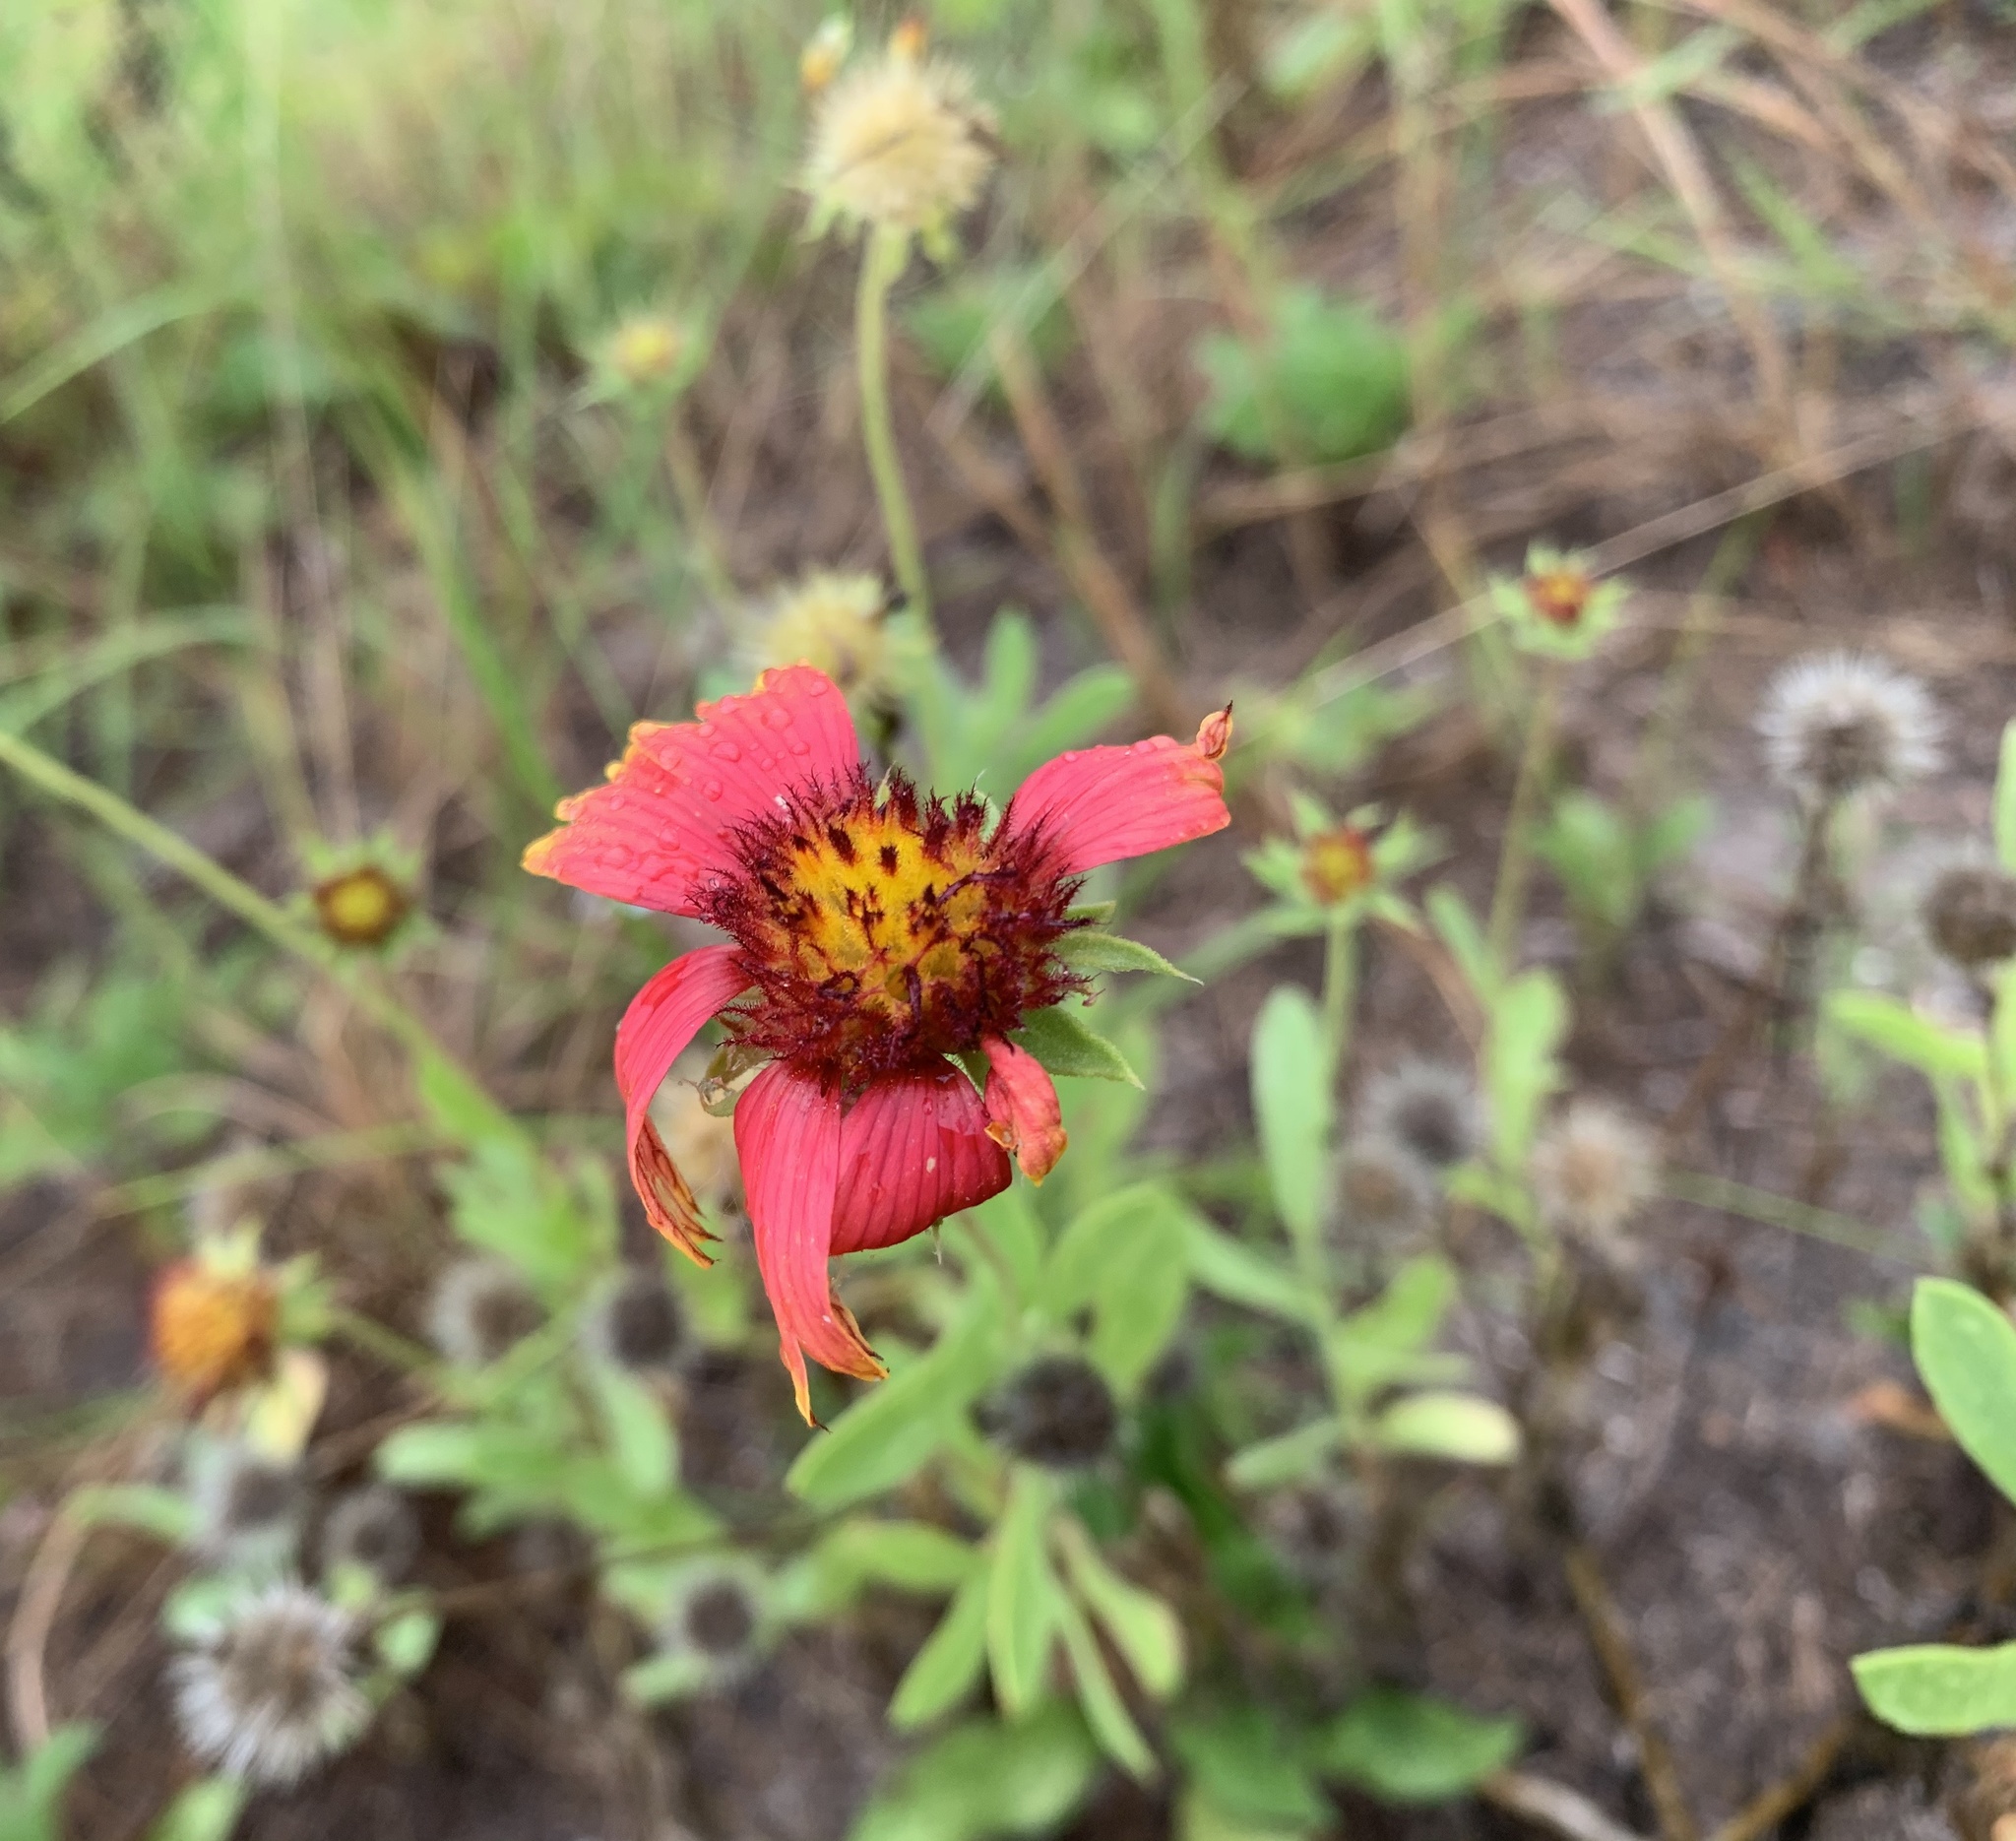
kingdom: Plantae
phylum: Tracheophyta
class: Magnoliopsida
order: Asterales
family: Asteraceae
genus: Gaillardia
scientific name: Gaillardia pulchella
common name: Firewheel
